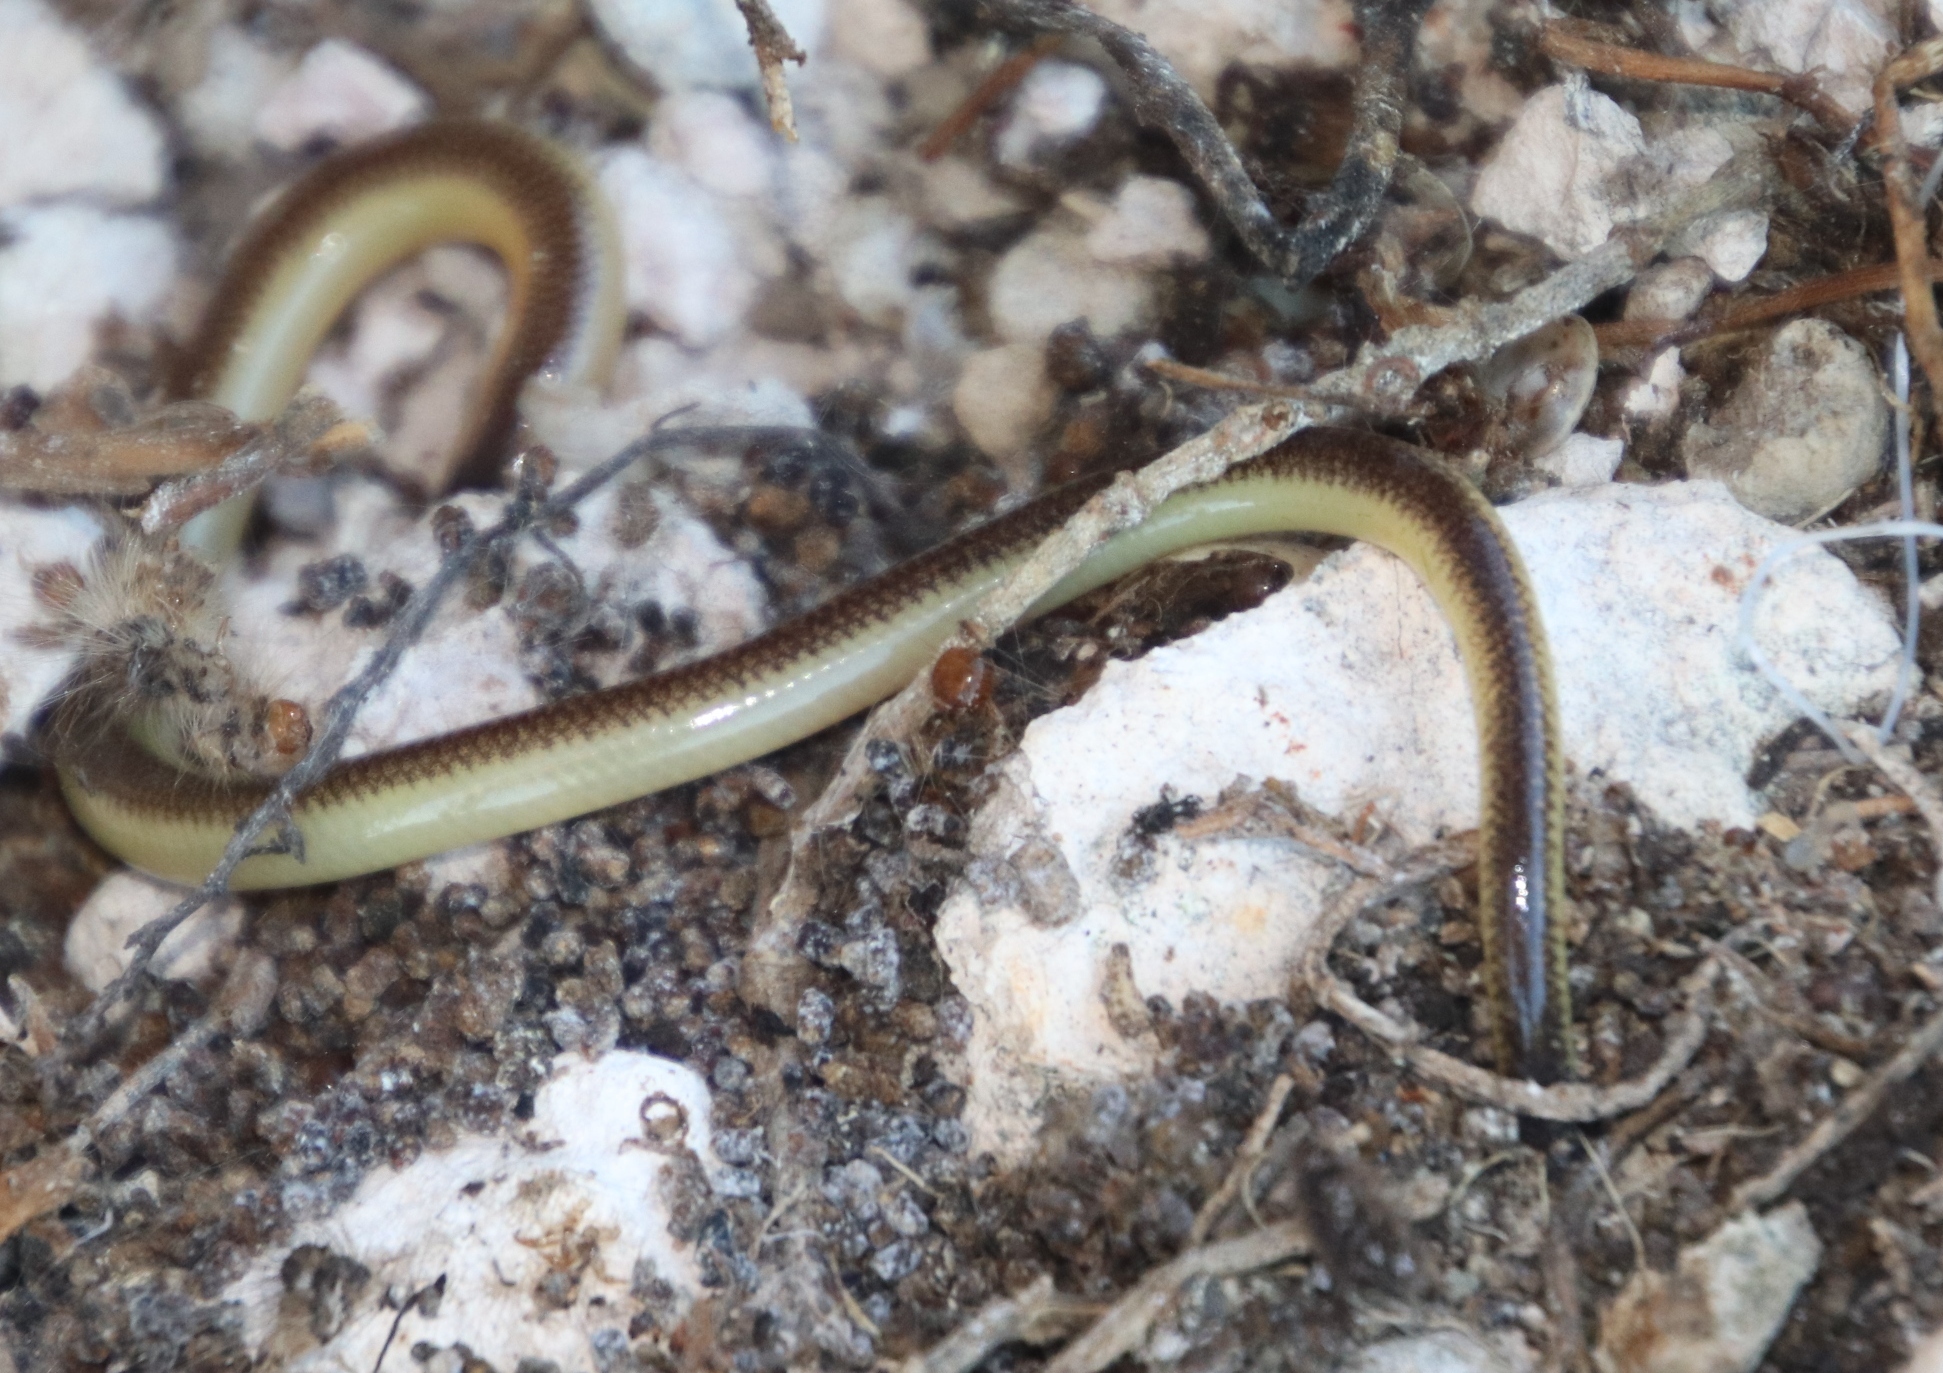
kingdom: Animalia
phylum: Chordata
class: Squamata
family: Scincidae
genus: Acontias
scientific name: Acontias meleagris
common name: Cape legless skink
